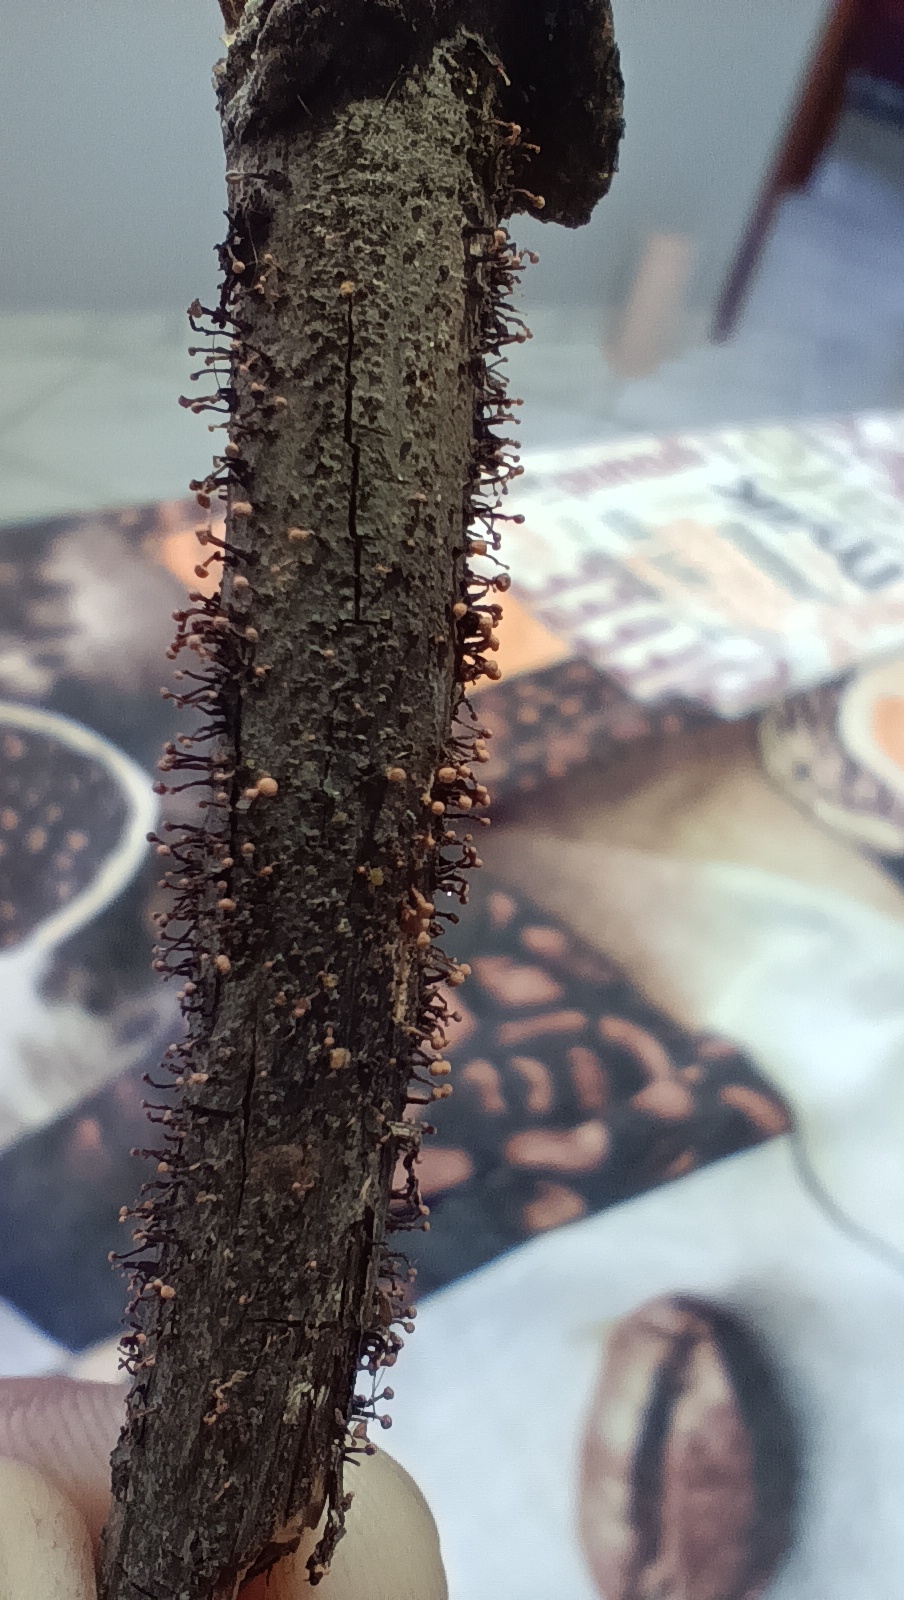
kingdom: Fungi
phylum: Ascomycota
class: Sordariomycetes
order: Hypocreales
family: Nectriaceae
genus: Nectria
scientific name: Nectria pseudotrichia
